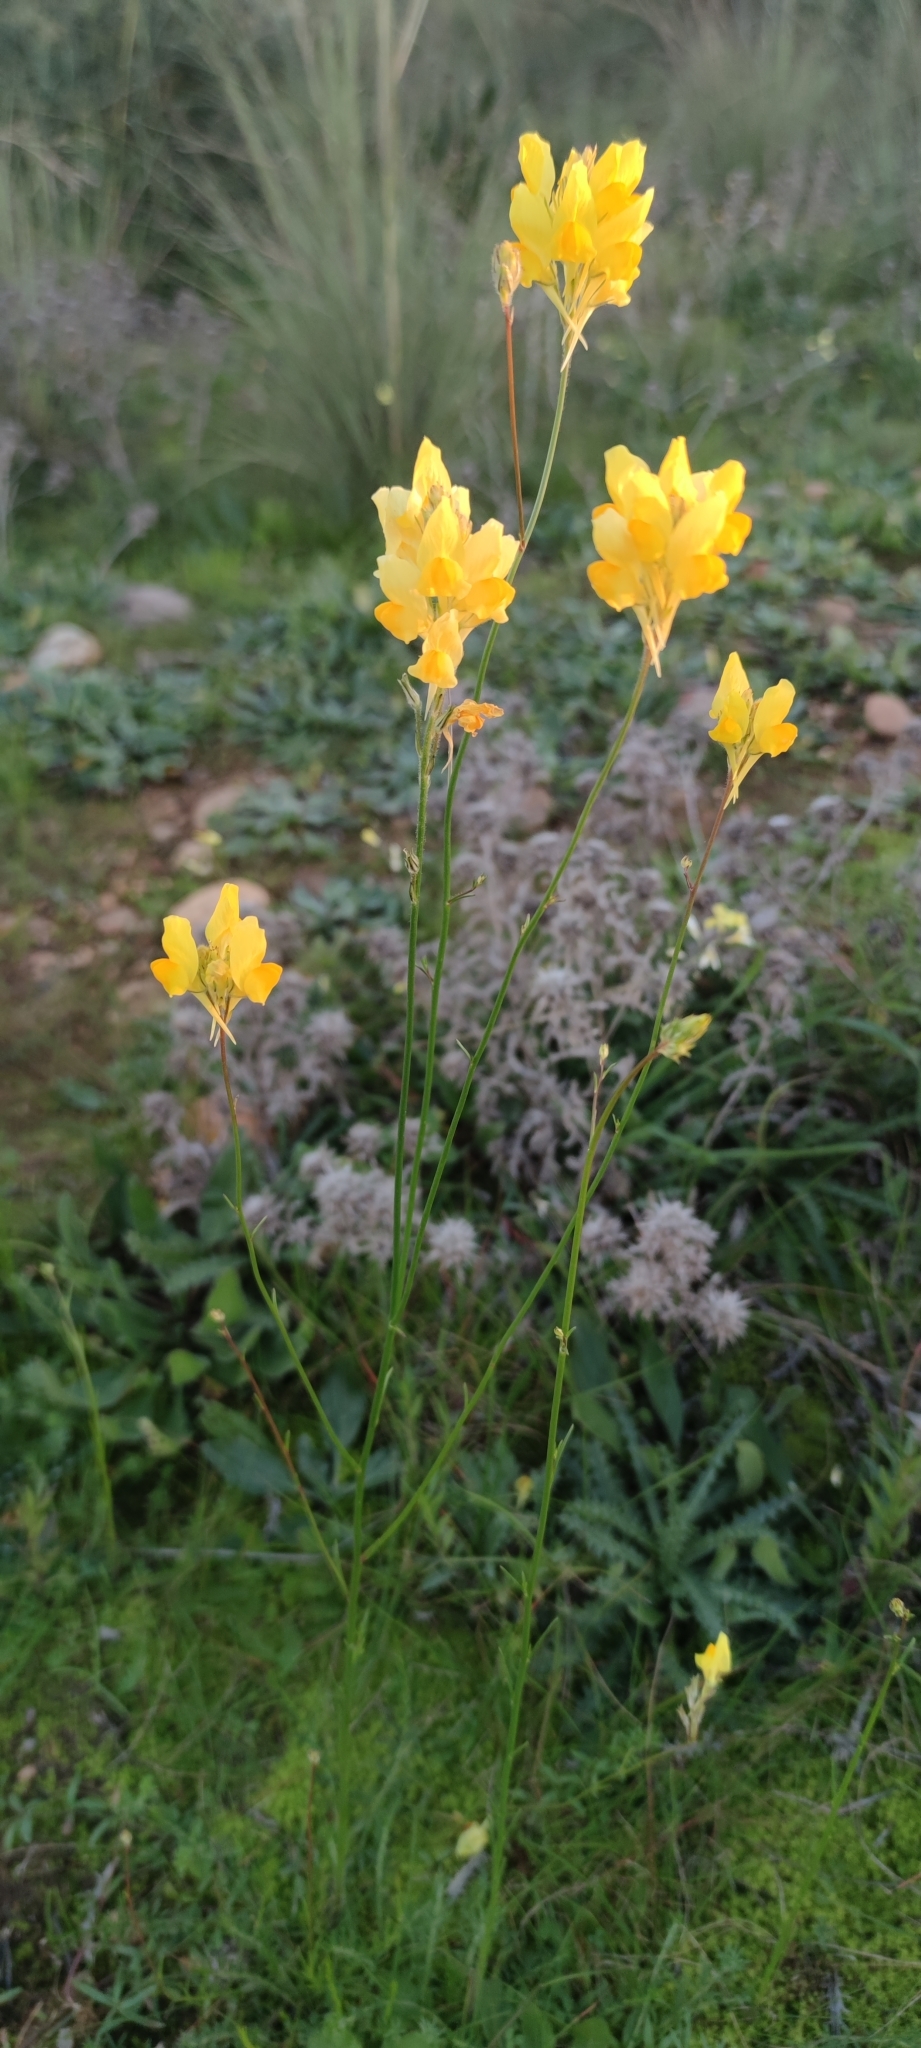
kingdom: Plantae
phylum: Tracheophyta
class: Magnoliopsida
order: Lamiales
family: Plantaginaceae
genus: Linaria
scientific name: Linaria viscosa
